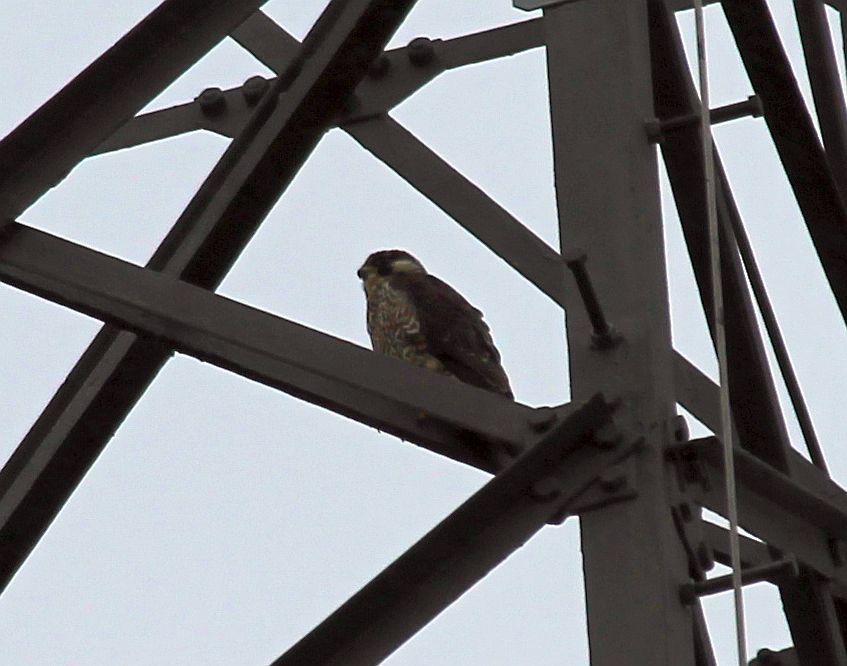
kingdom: Animalia
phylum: Chordata
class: Aves
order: Falconiformes
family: Falconidae
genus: Falco
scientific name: Falco peregrinus
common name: Peregrine falcon
